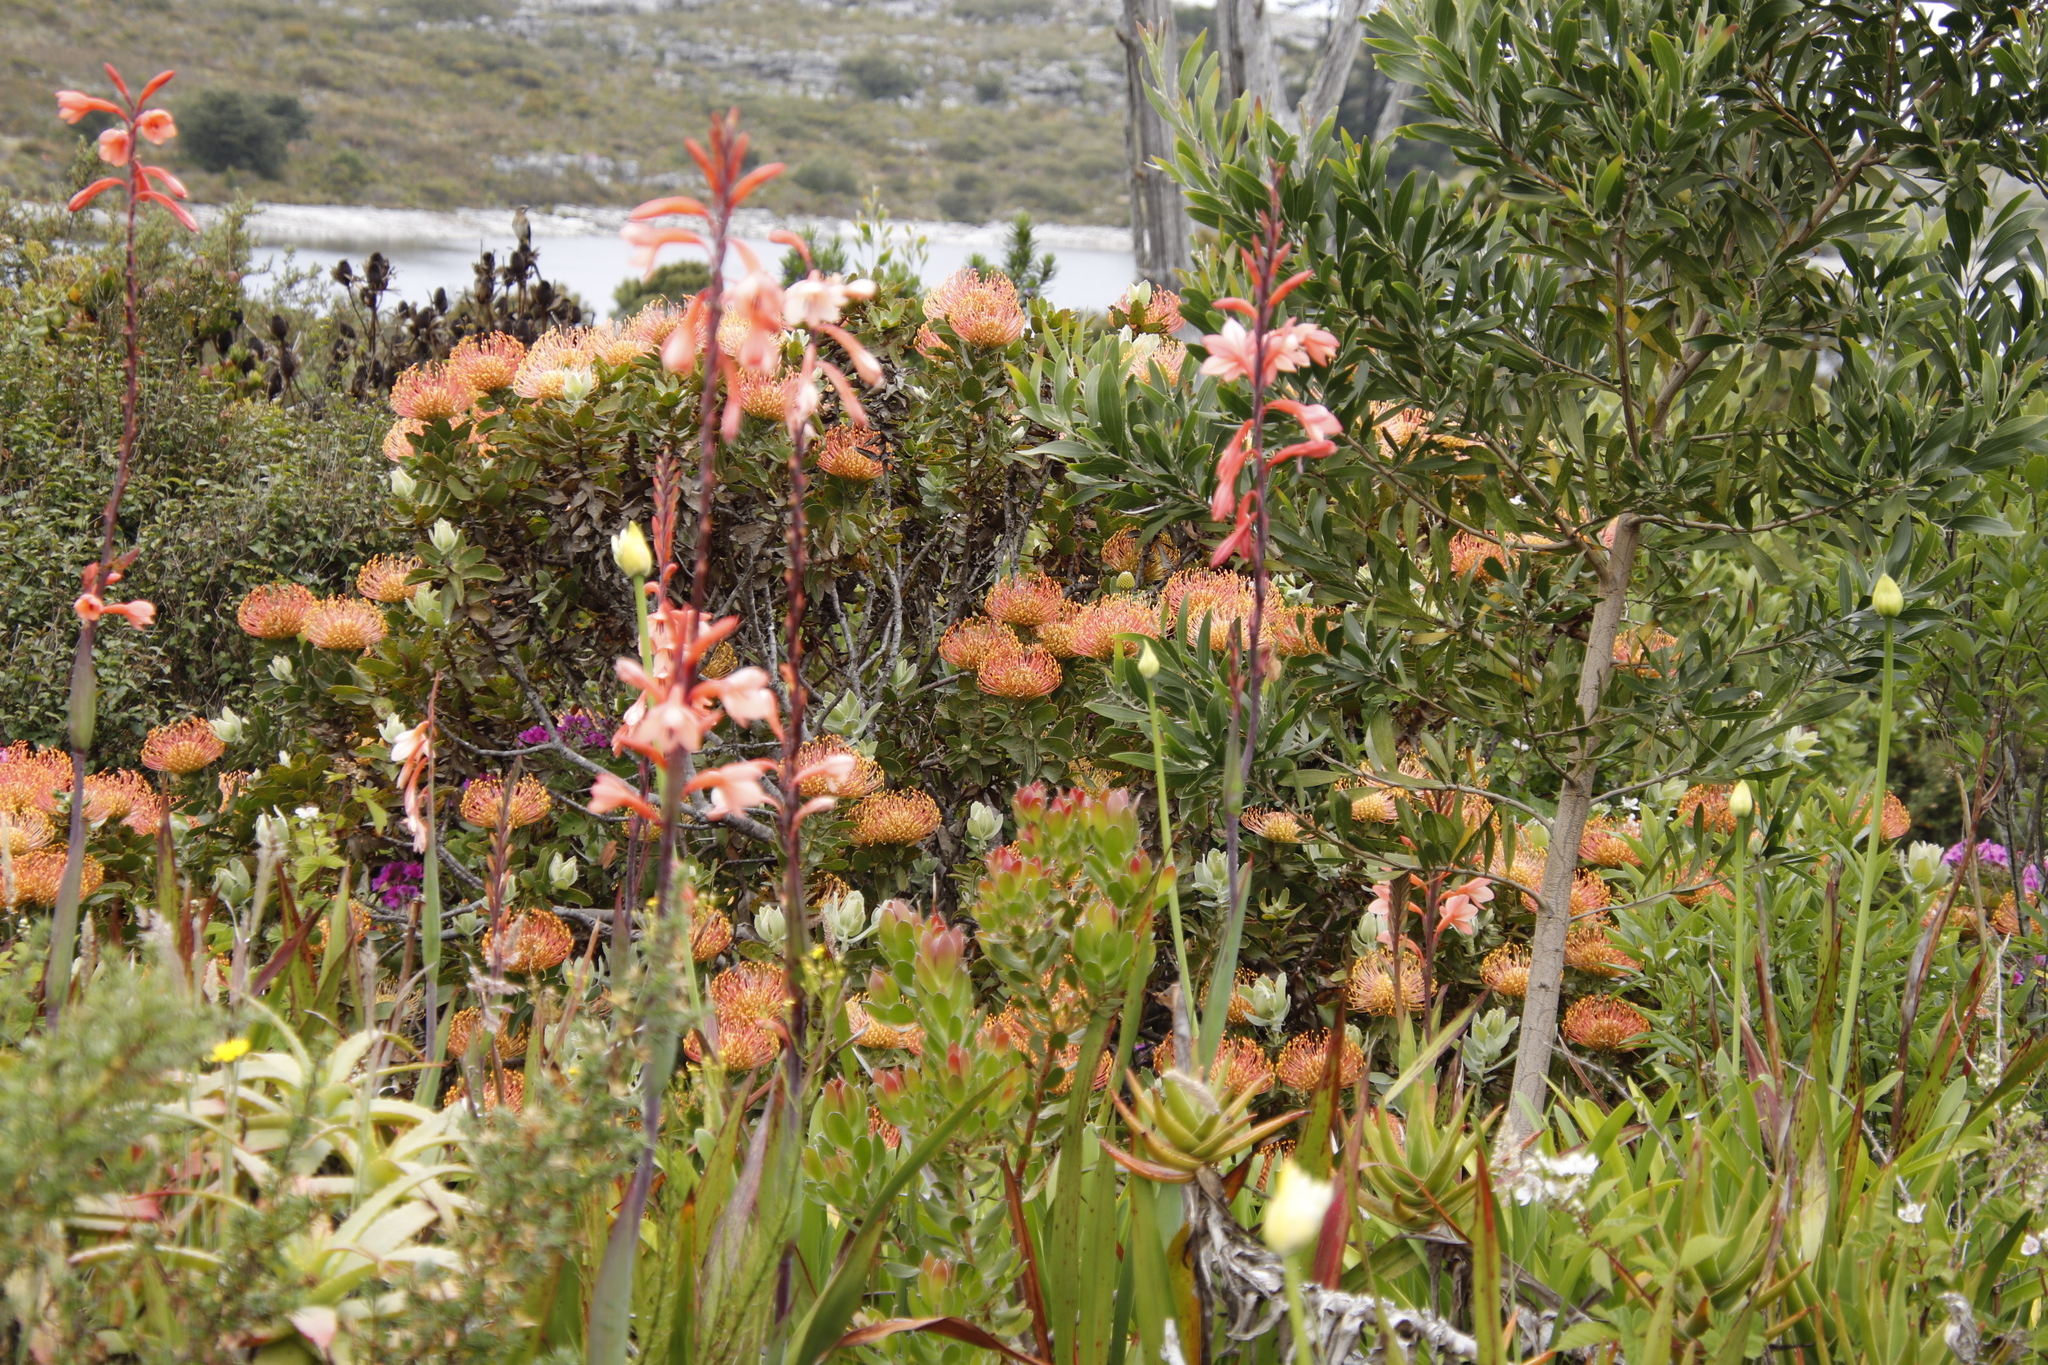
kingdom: Plantae
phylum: Tracheophyta
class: Magnoliopsida
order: Proteales
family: Proteaceae
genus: Leucospermum
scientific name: Leucospermum cordifolium
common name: Red pincushion-protea
